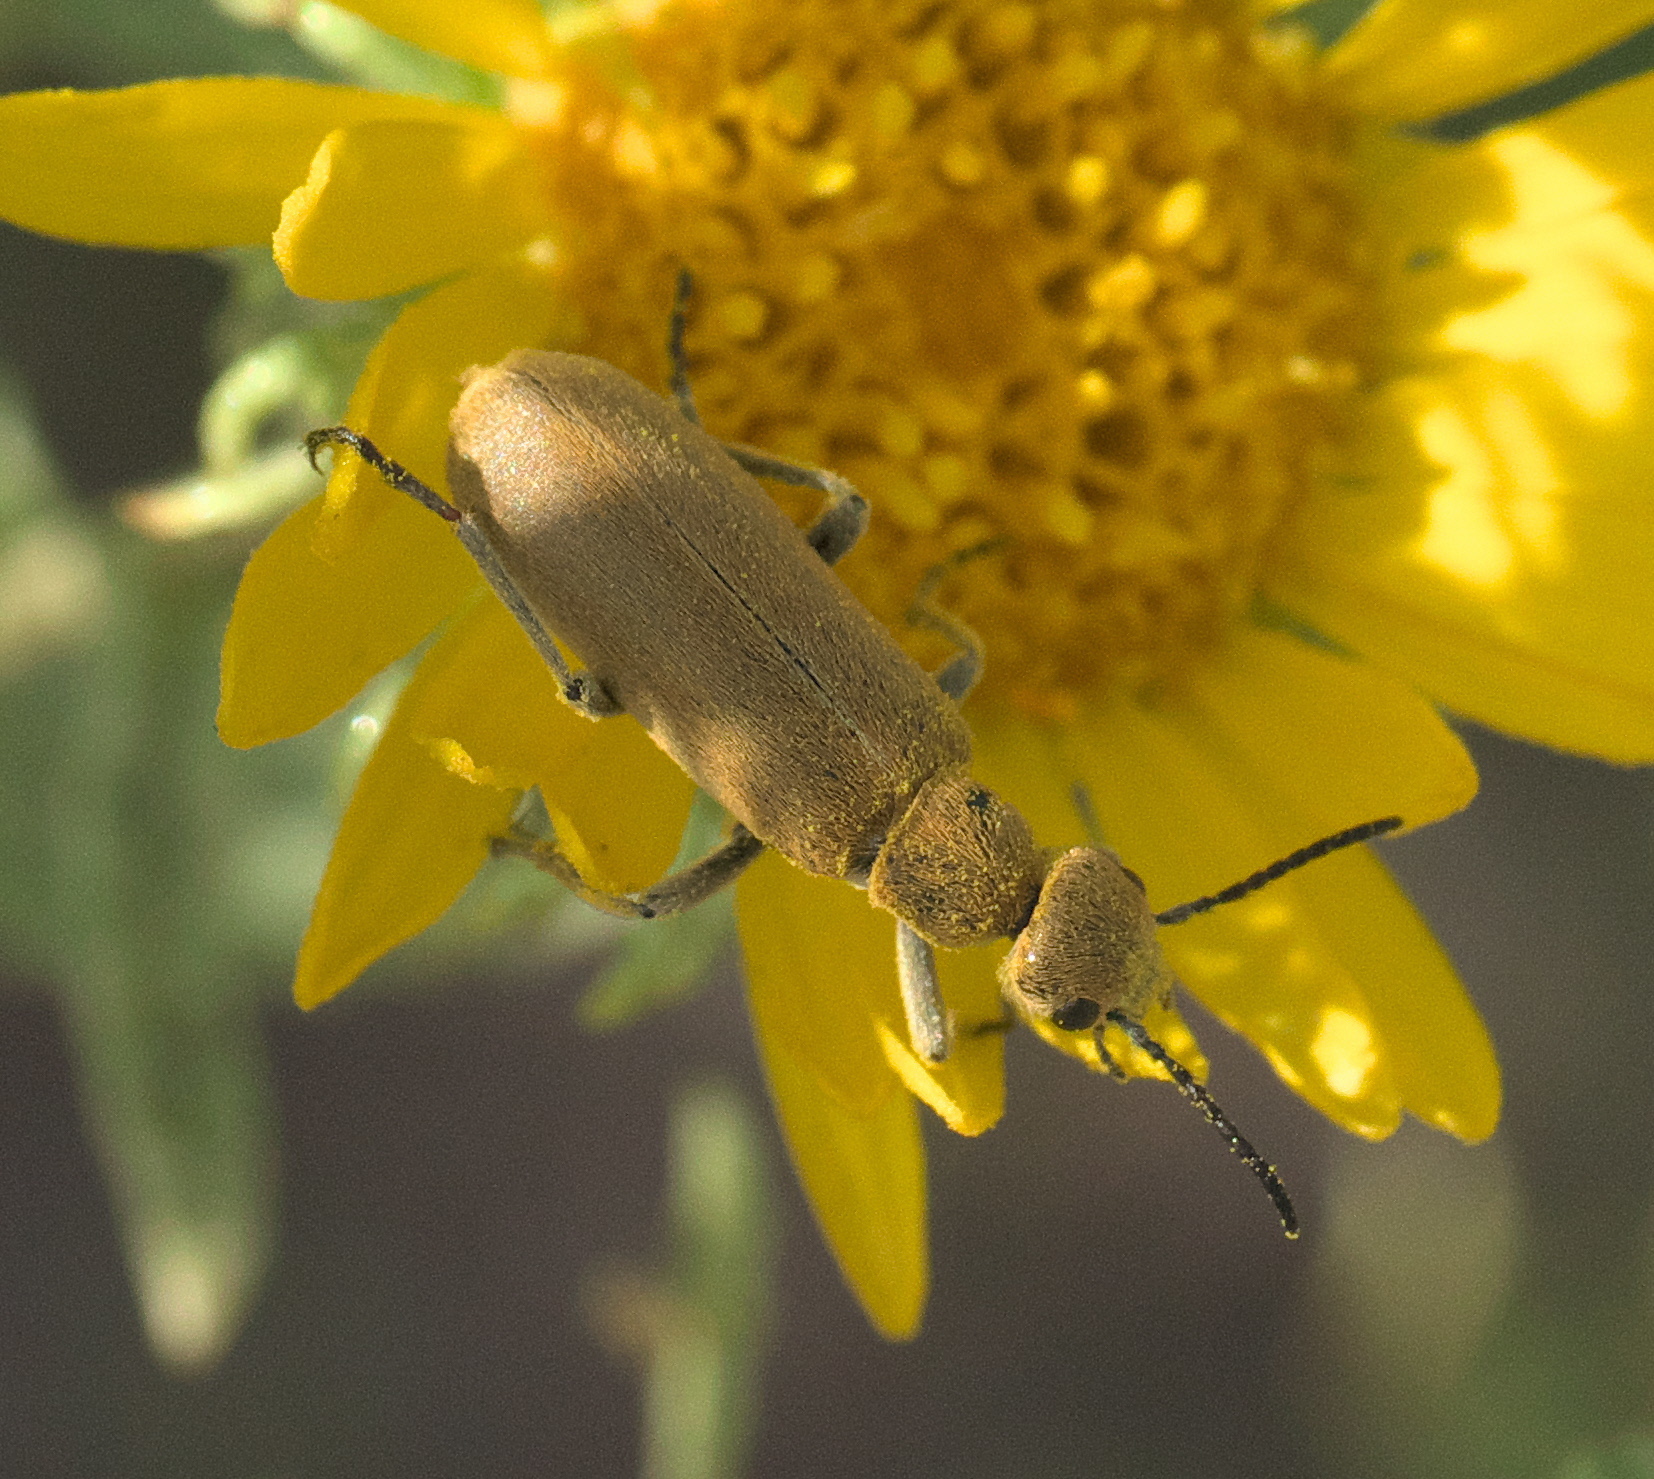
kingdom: Animalia
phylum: Arthropoda
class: Insecta
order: Coleoptera
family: Meloidae
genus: Epicauta
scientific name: Epicauta ferruginea
